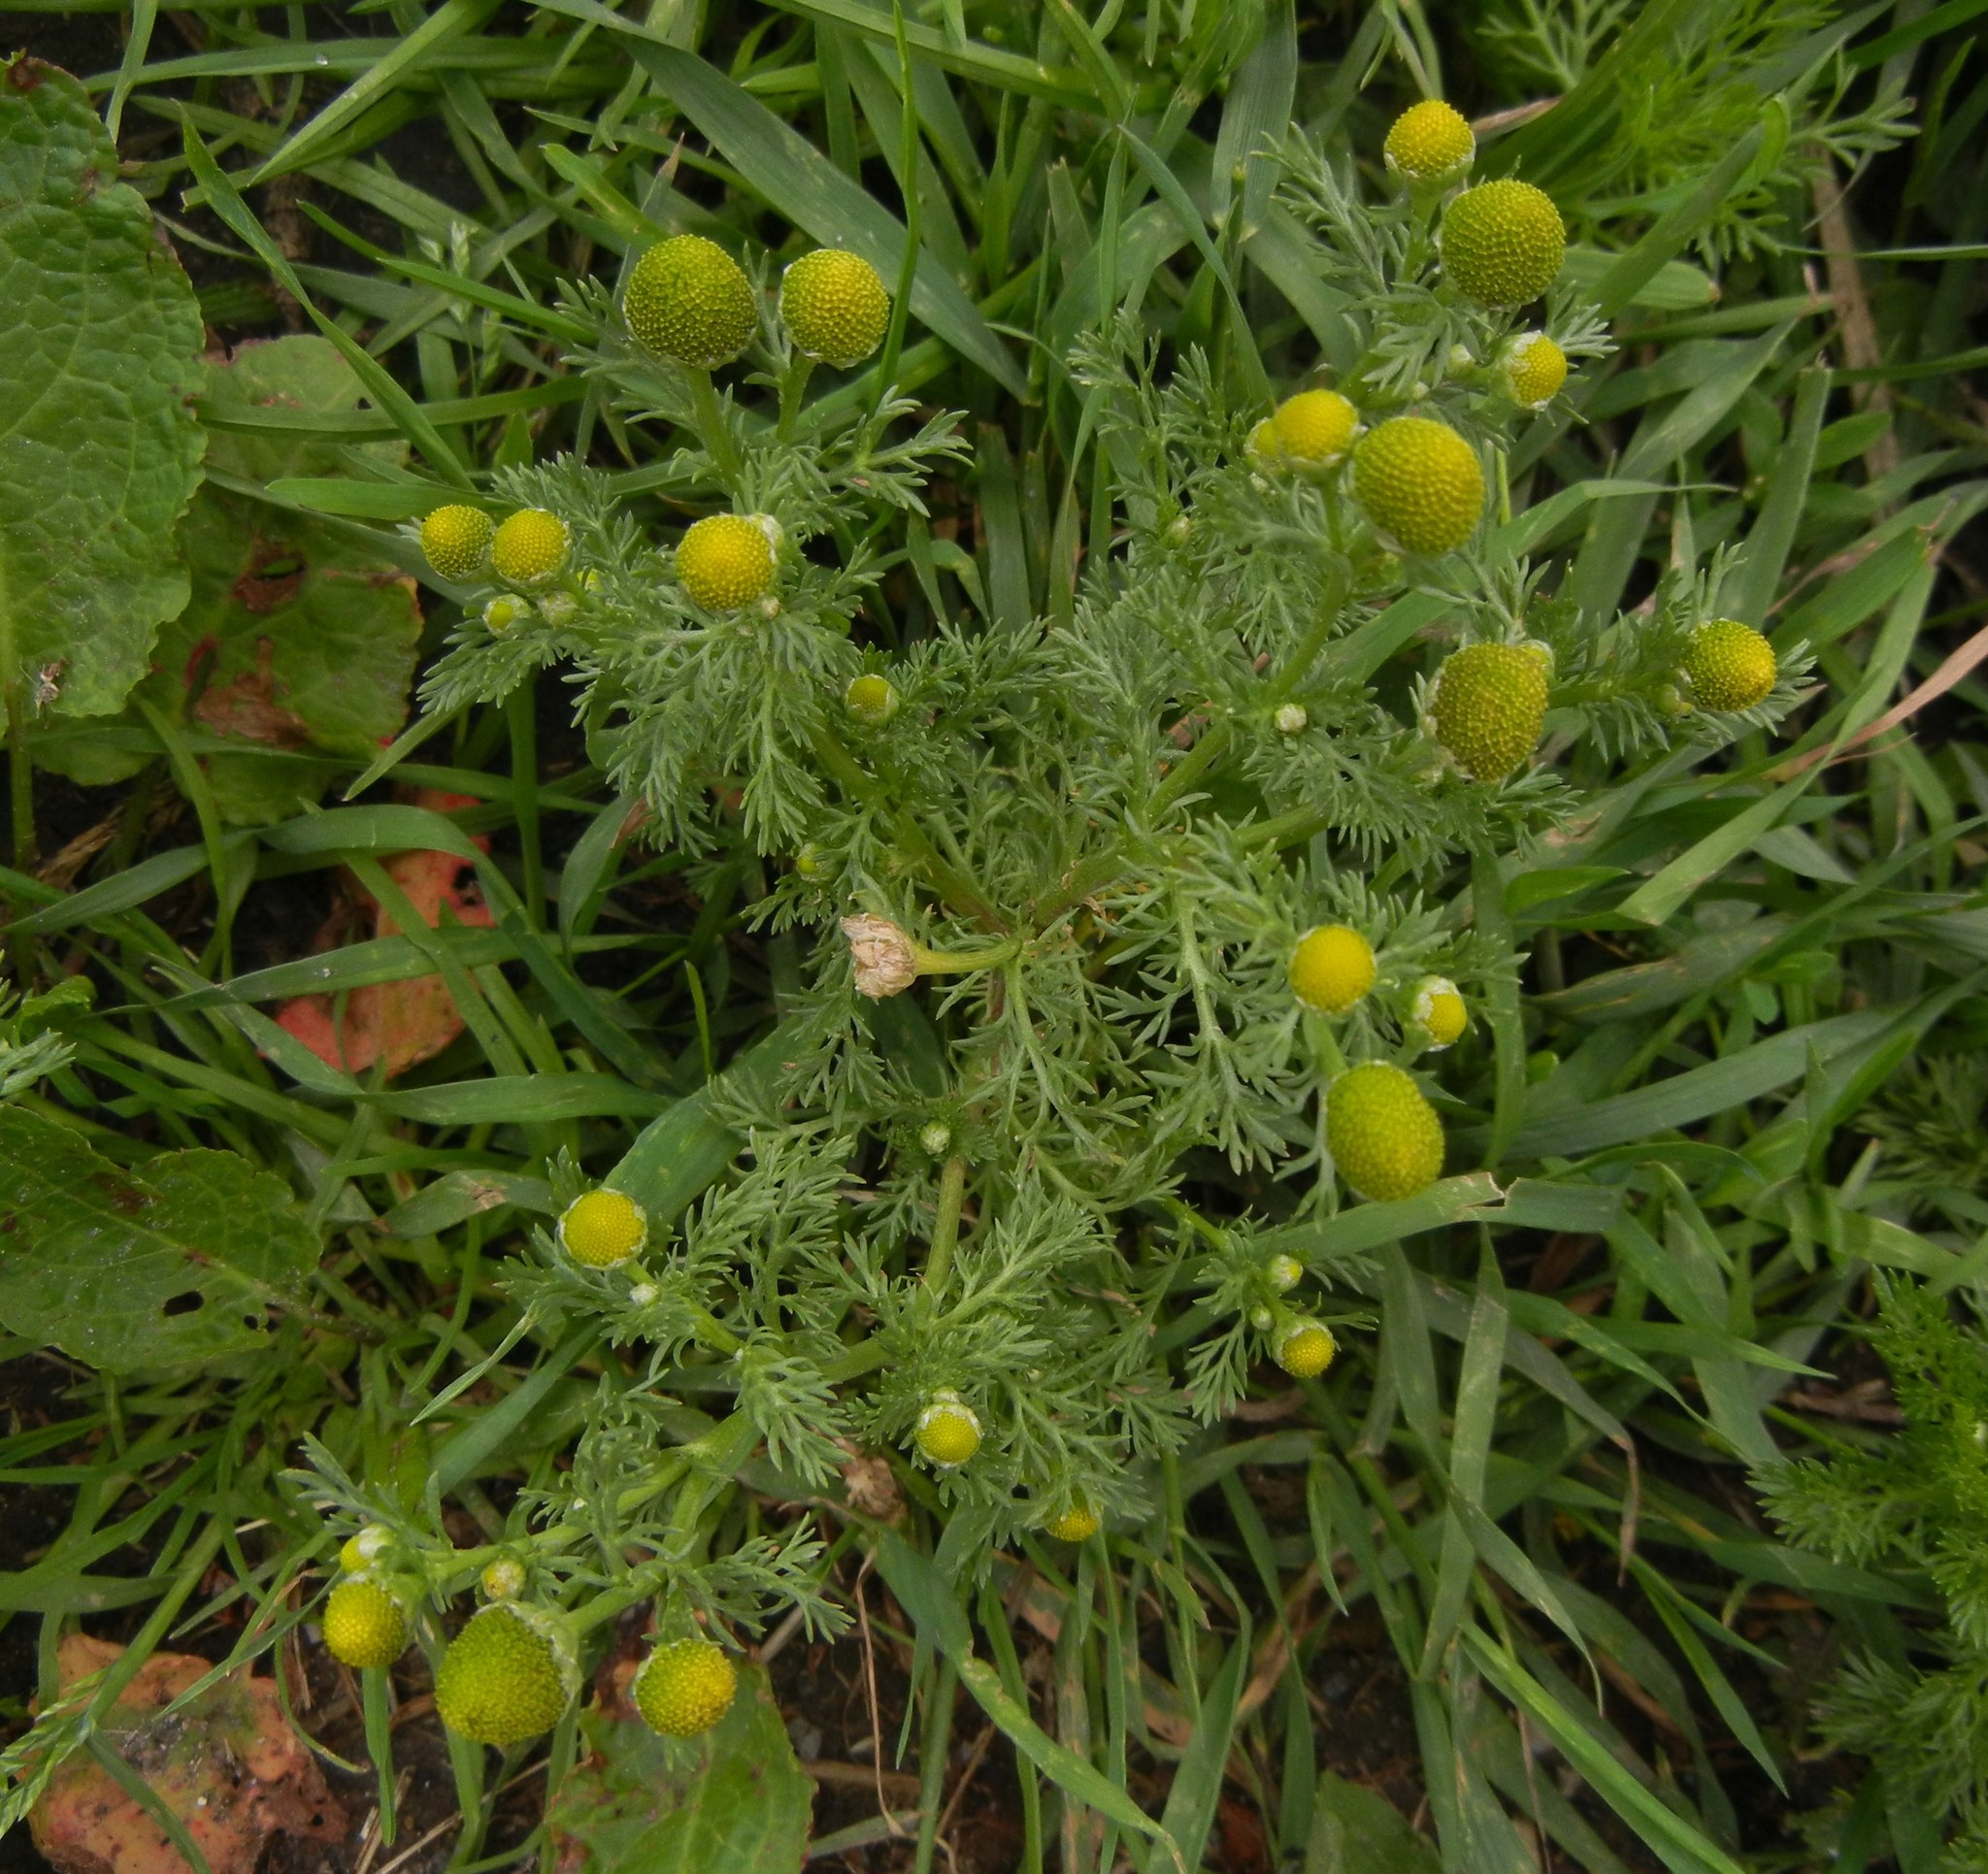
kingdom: Plantae
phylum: Tracheophyta
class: Magnoliopsida
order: Asterales
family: Asteraceae
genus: Matricaria
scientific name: Matricaria discoidea
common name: Disc mayweed
